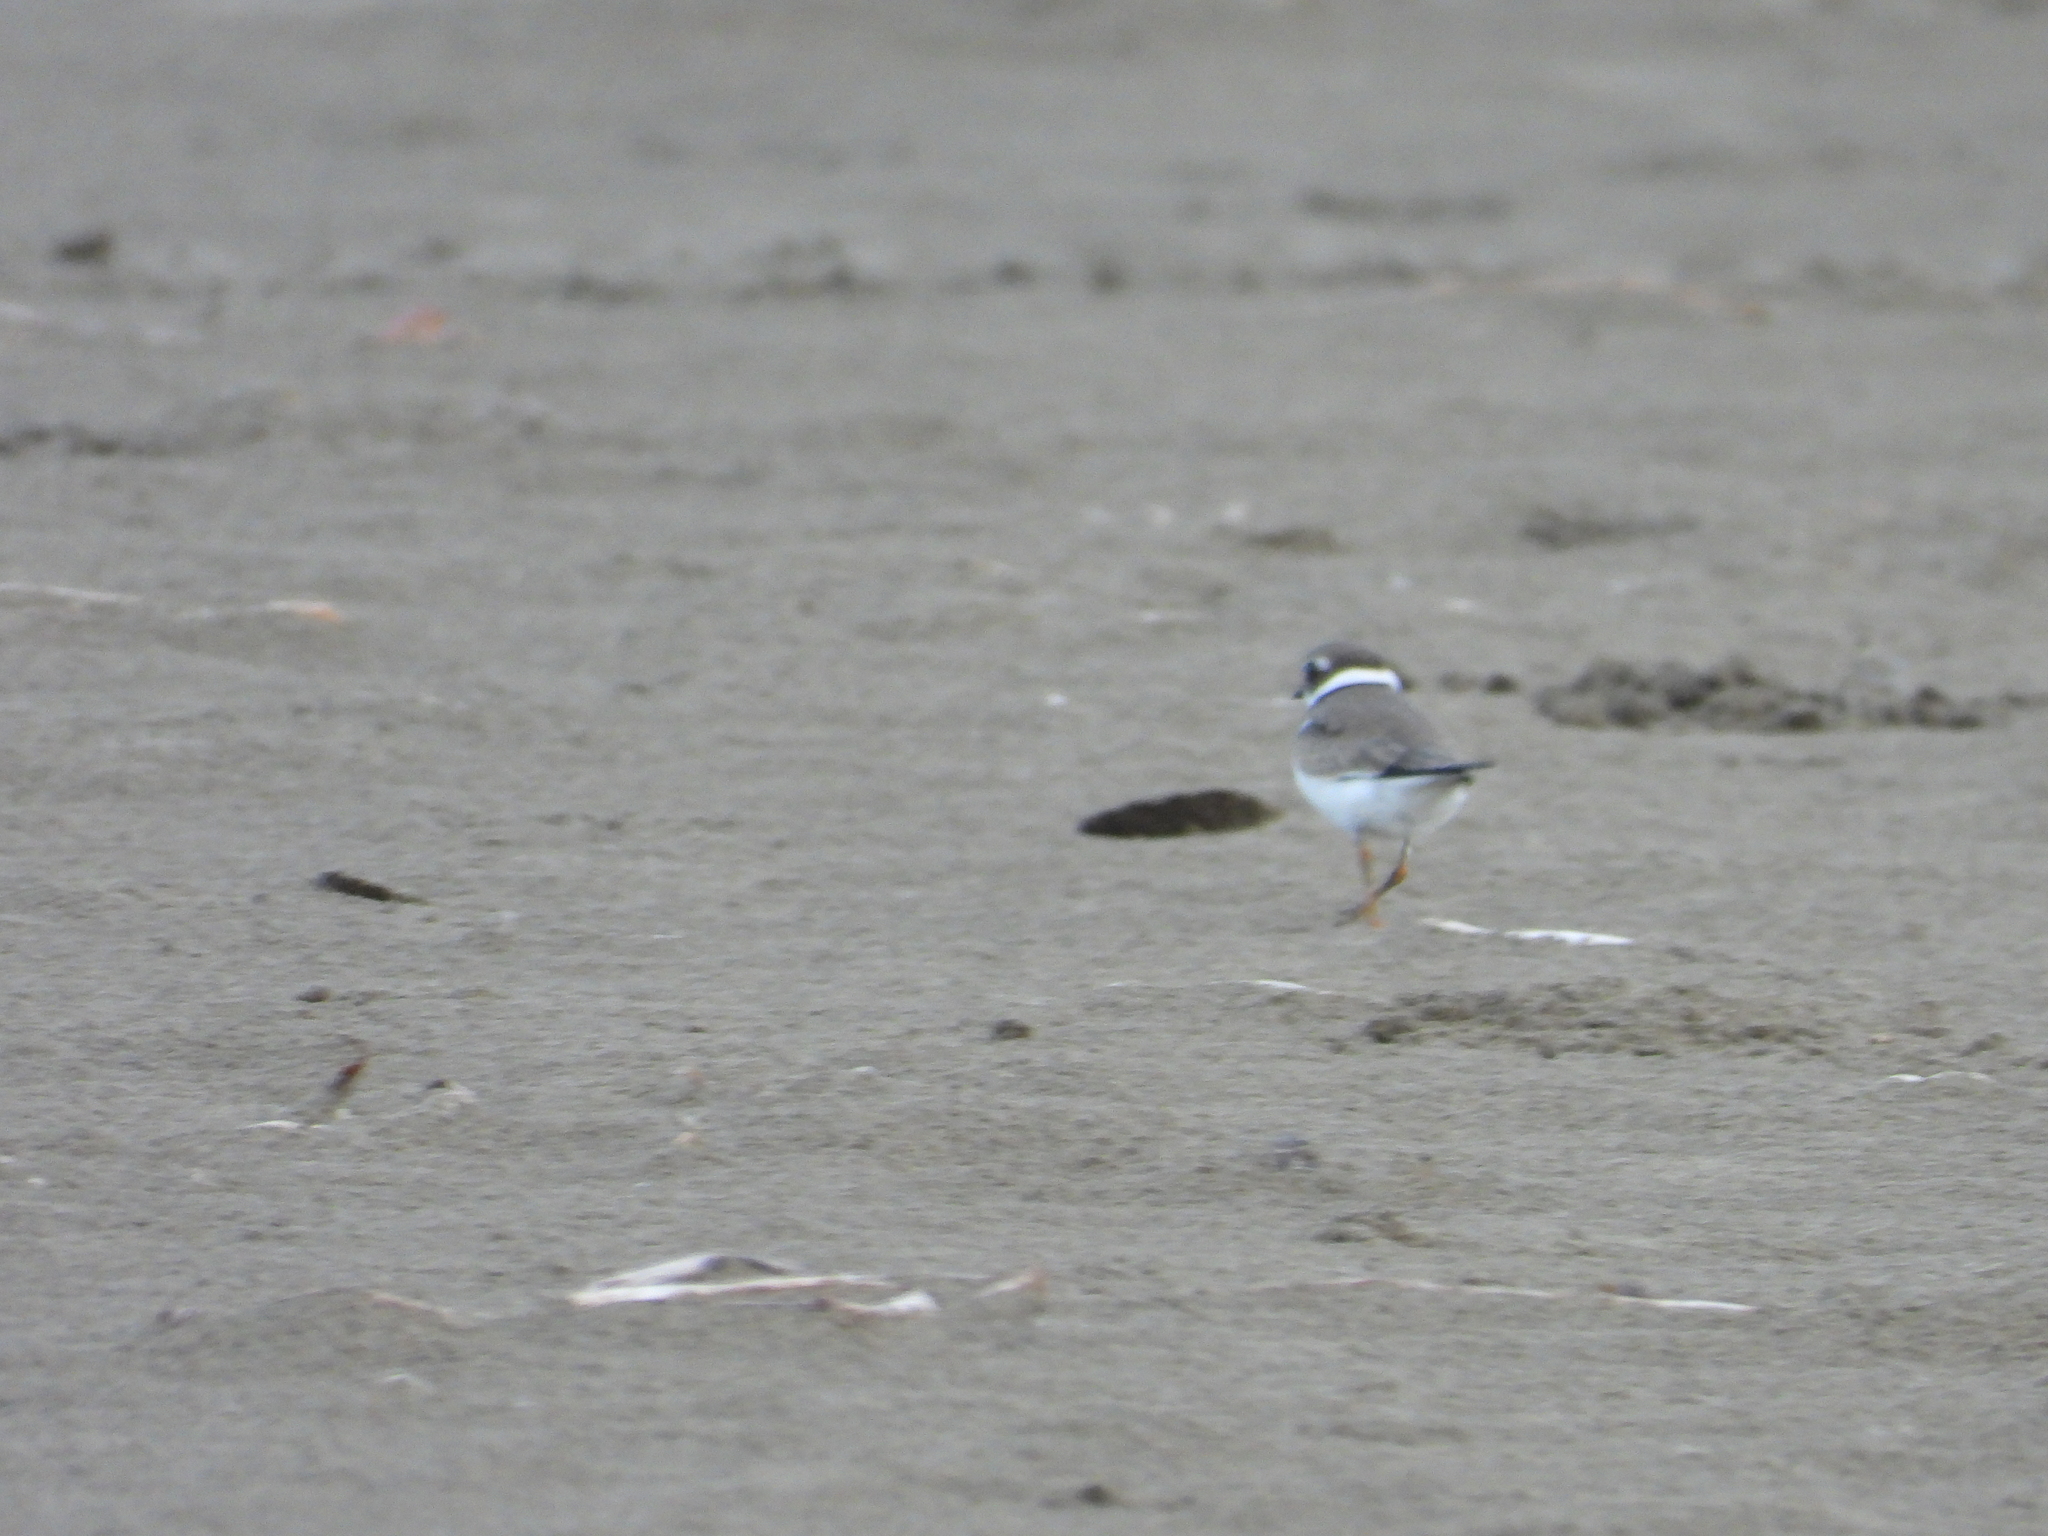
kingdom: Animalia
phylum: Chordata
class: Aves
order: Charadriiformes
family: Charadriidae
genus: Charadrius
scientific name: Charadrius semipalmatus
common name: Semipalmated plover
